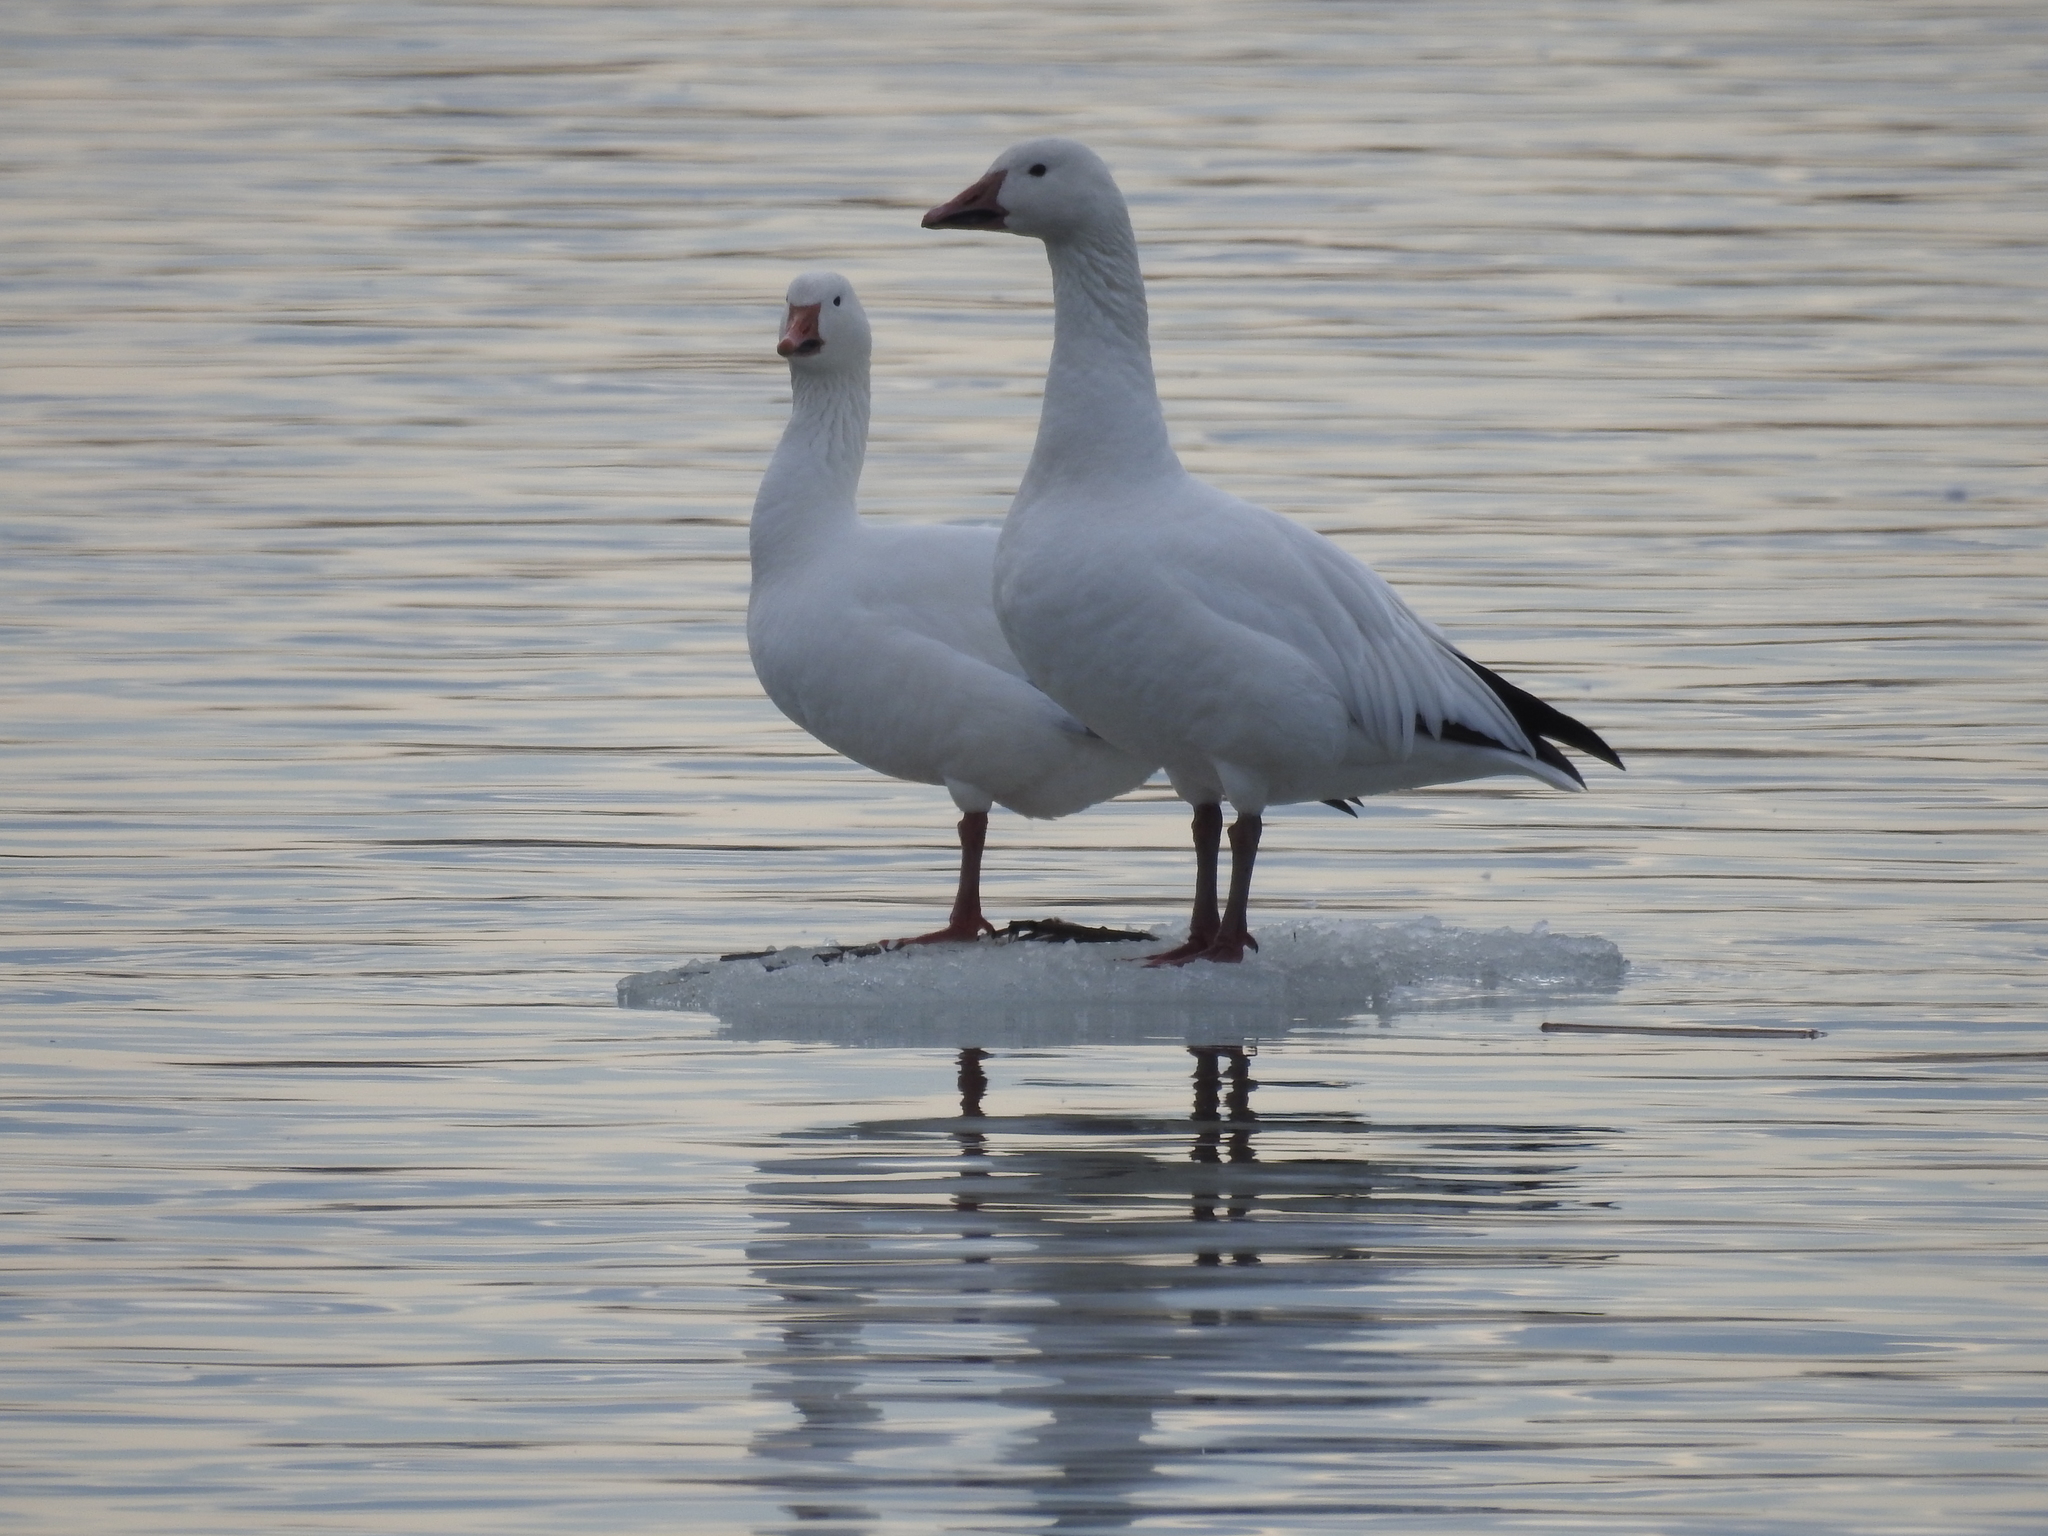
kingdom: Animalia
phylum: Chordata
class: Aves
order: Anseriformes
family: Anatidae
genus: Anser
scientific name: Anser caerulescens
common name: Snow goose
